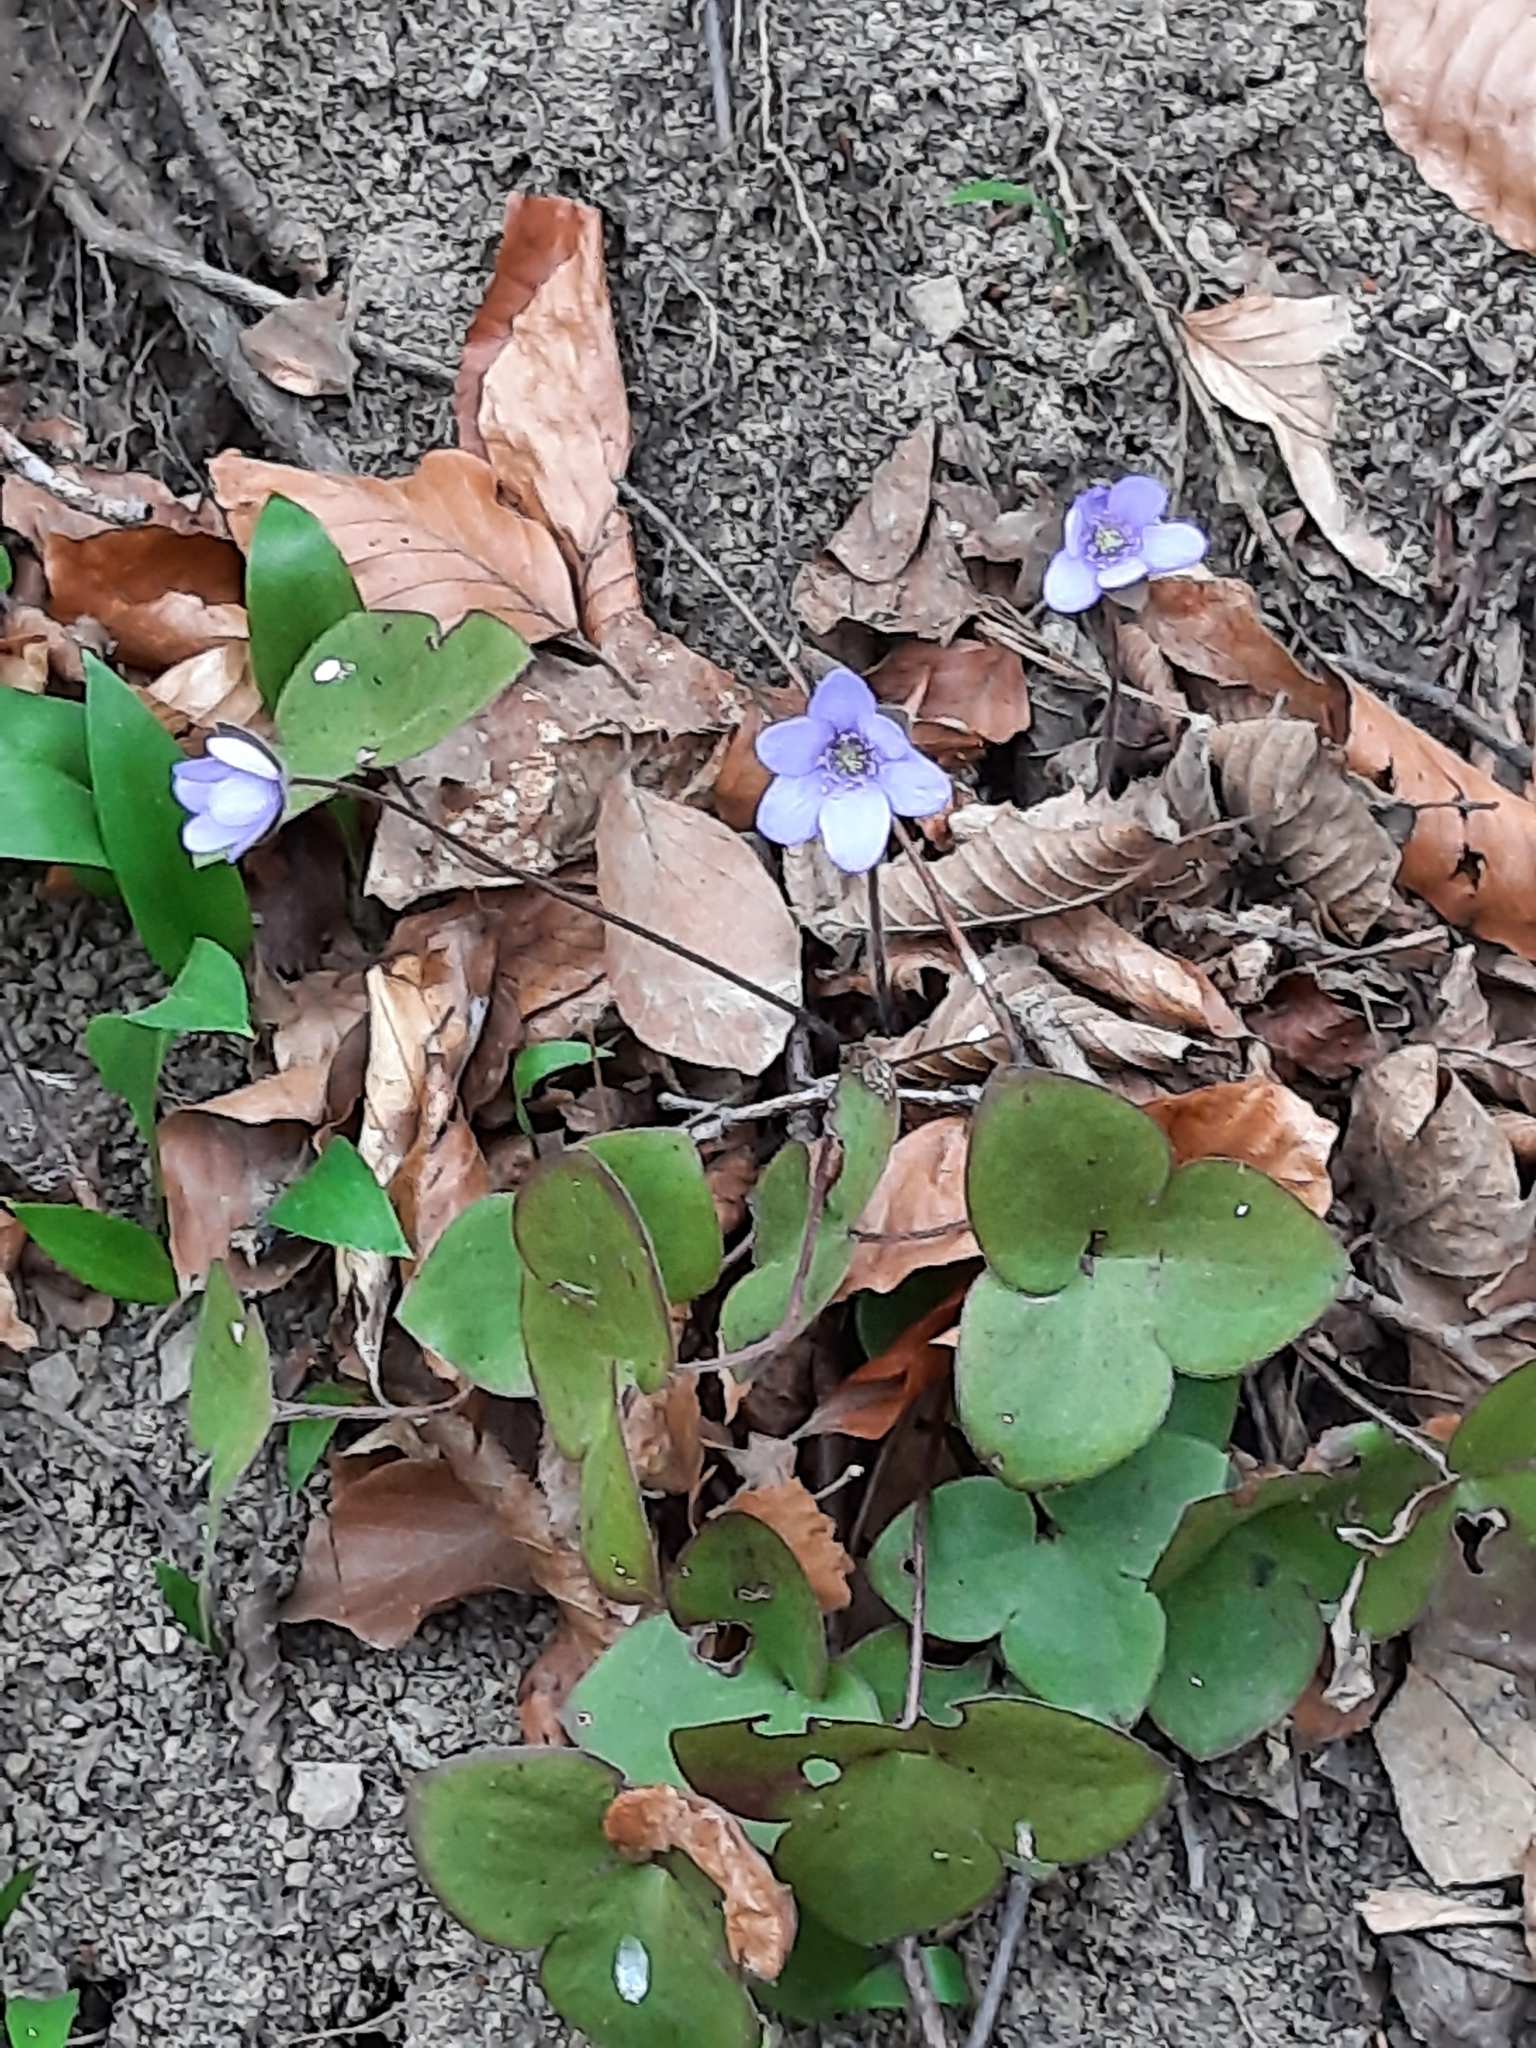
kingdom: Plantae
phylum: Tracheophyta
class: Magnoliopsida
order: Ranunculales
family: Ranunculaceae
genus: Hepatica
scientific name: Hepatica nobilis
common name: Liverleaf
